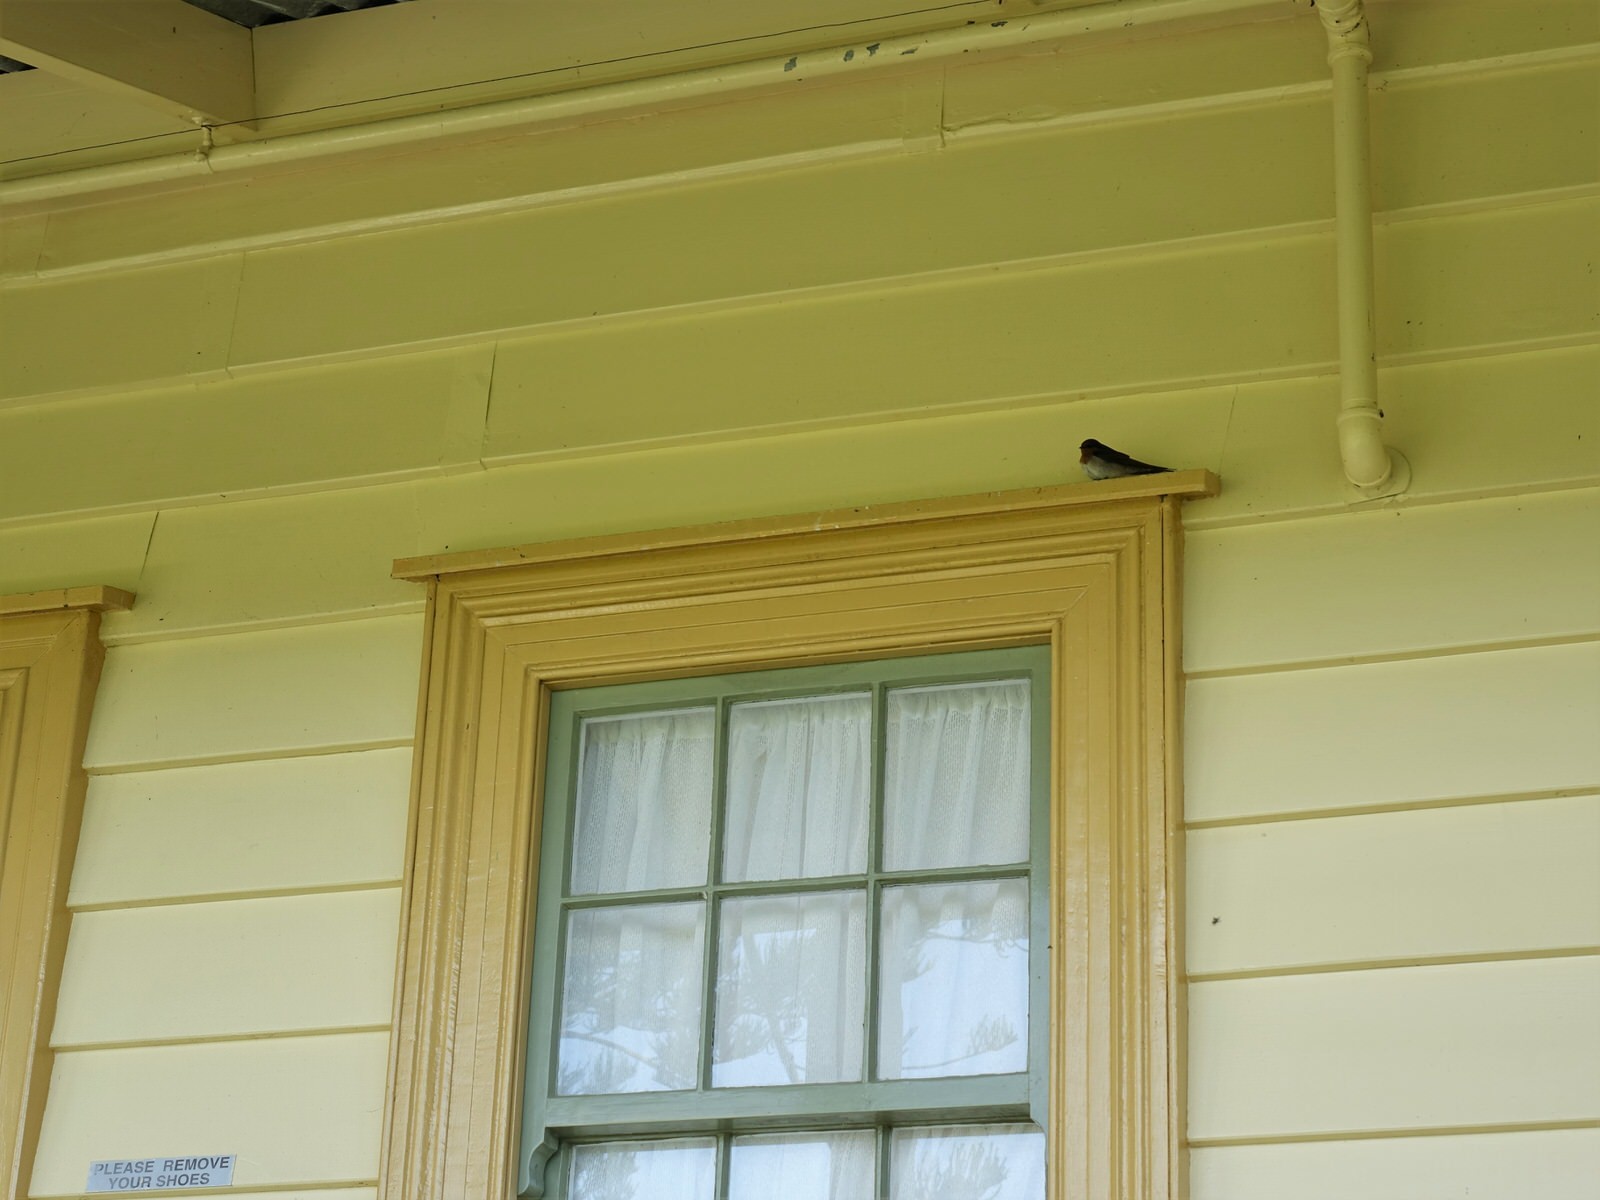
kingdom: Animalia
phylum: Chordata
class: Aves
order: Passeriformes
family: Hirundinidae
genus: Hirundo
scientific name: Hirundo neoxena
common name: Welcome swallow
